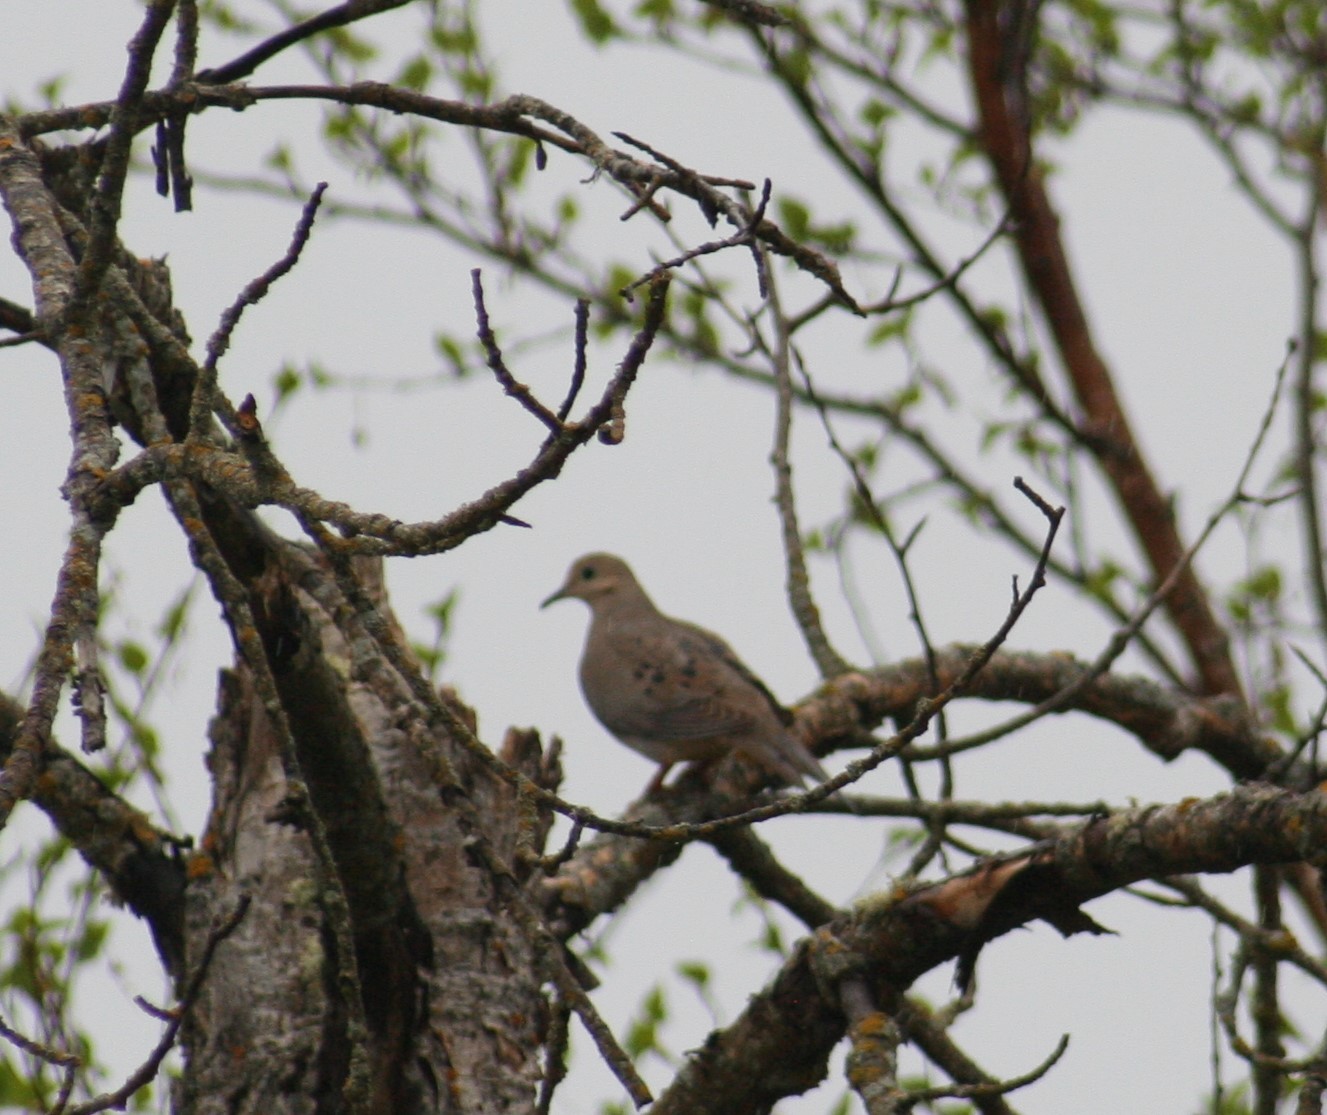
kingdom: Animalia
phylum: Chordata
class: Aves
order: Columbiformes
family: Columbidae
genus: Zenaida
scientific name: Zenaida macroura
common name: Mourning dove
